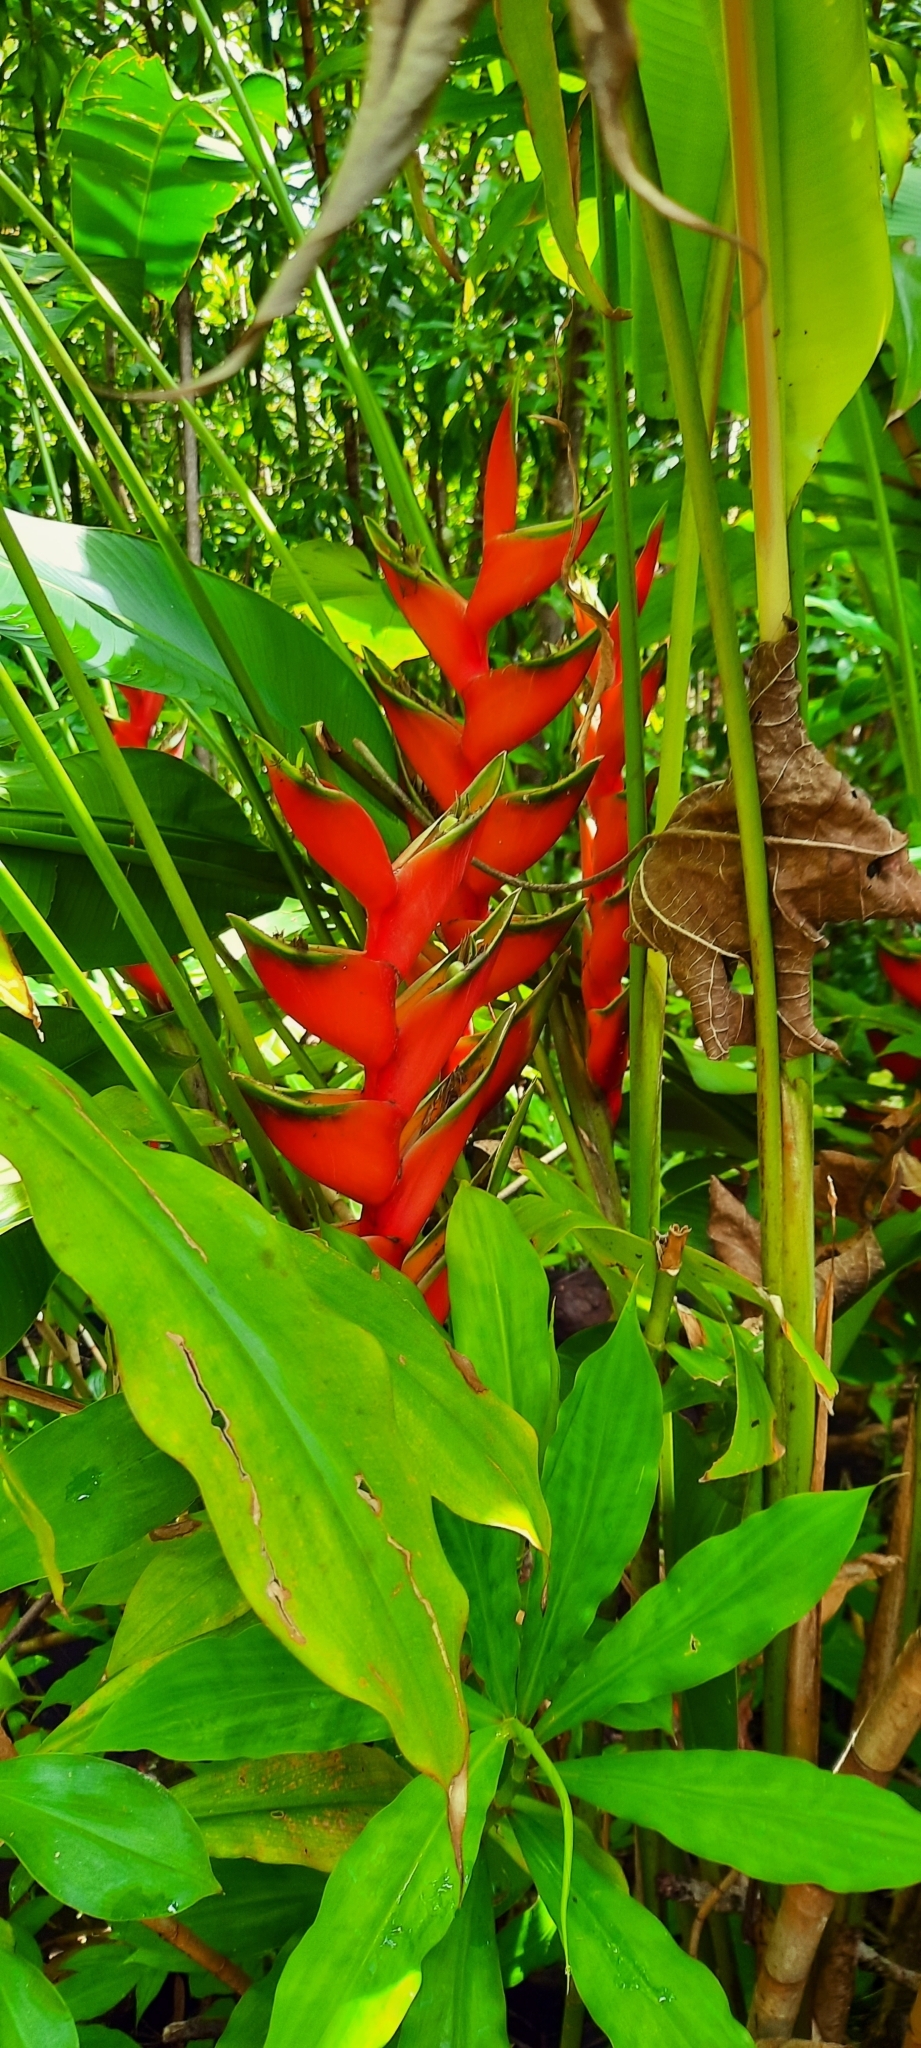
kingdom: Plantae
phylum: Tracheophyta
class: Liliopsida
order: Zingiberales
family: Heliconiaceae
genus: Heliconia
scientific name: Heliconia bihai
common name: Macaw flower
